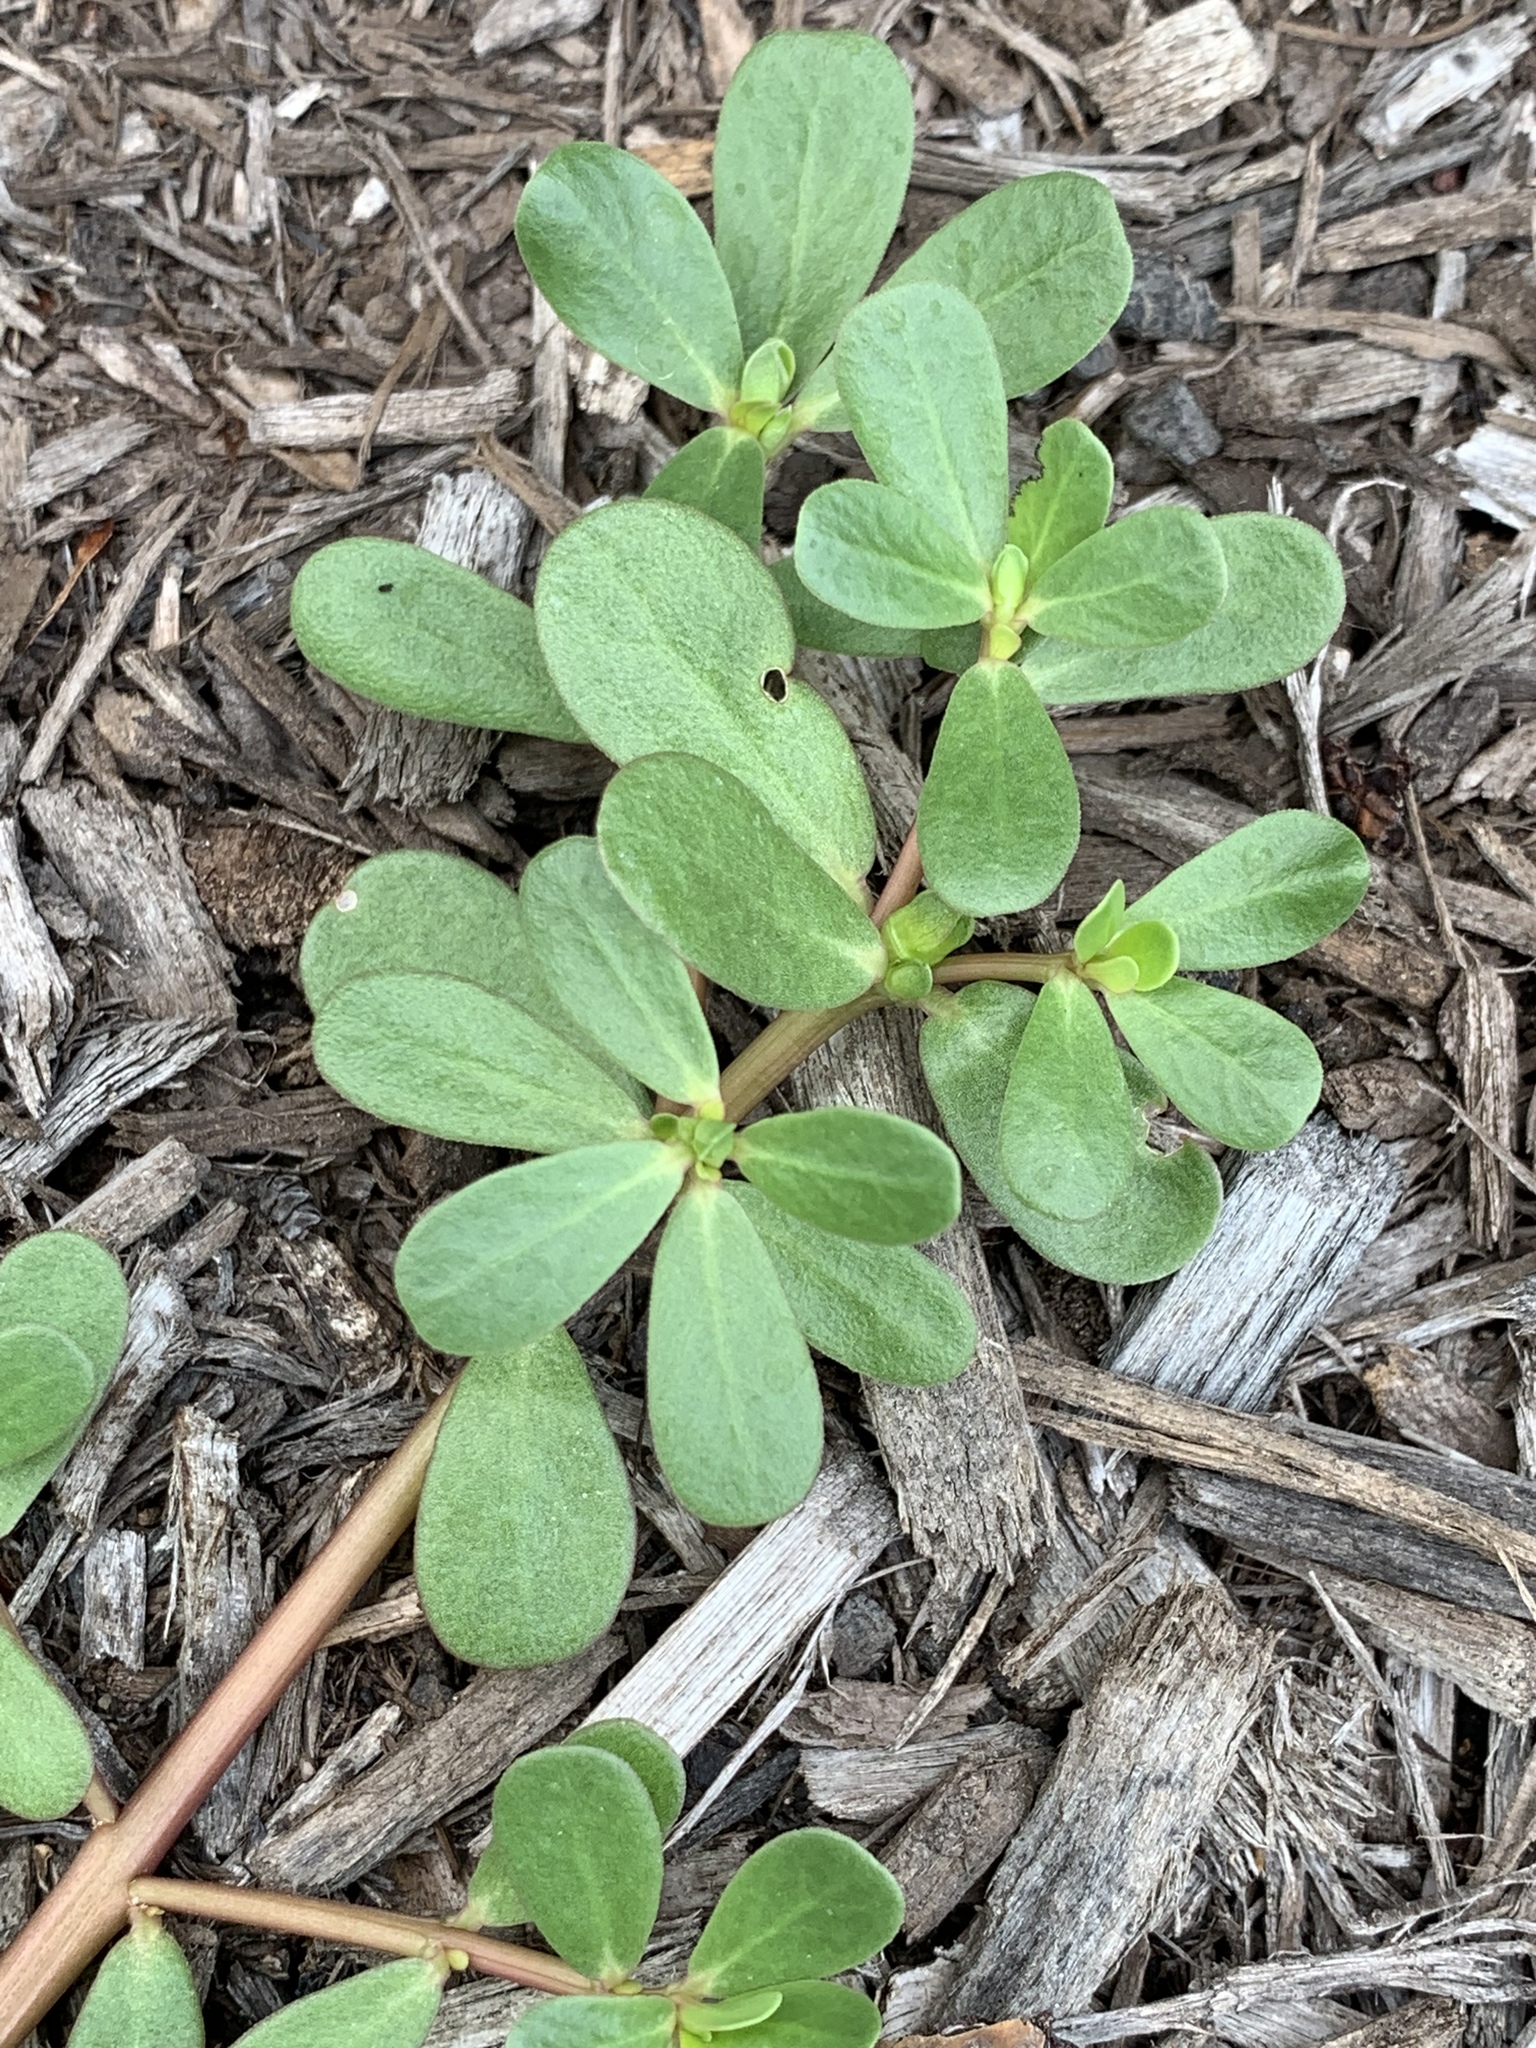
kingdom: Plantae
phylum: Tracheophyta
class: Magnoliopsida
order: Caryophyllales
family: Portulacaceae
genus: Portulaca
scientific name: Portulaca oleracea
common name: Common purslane
